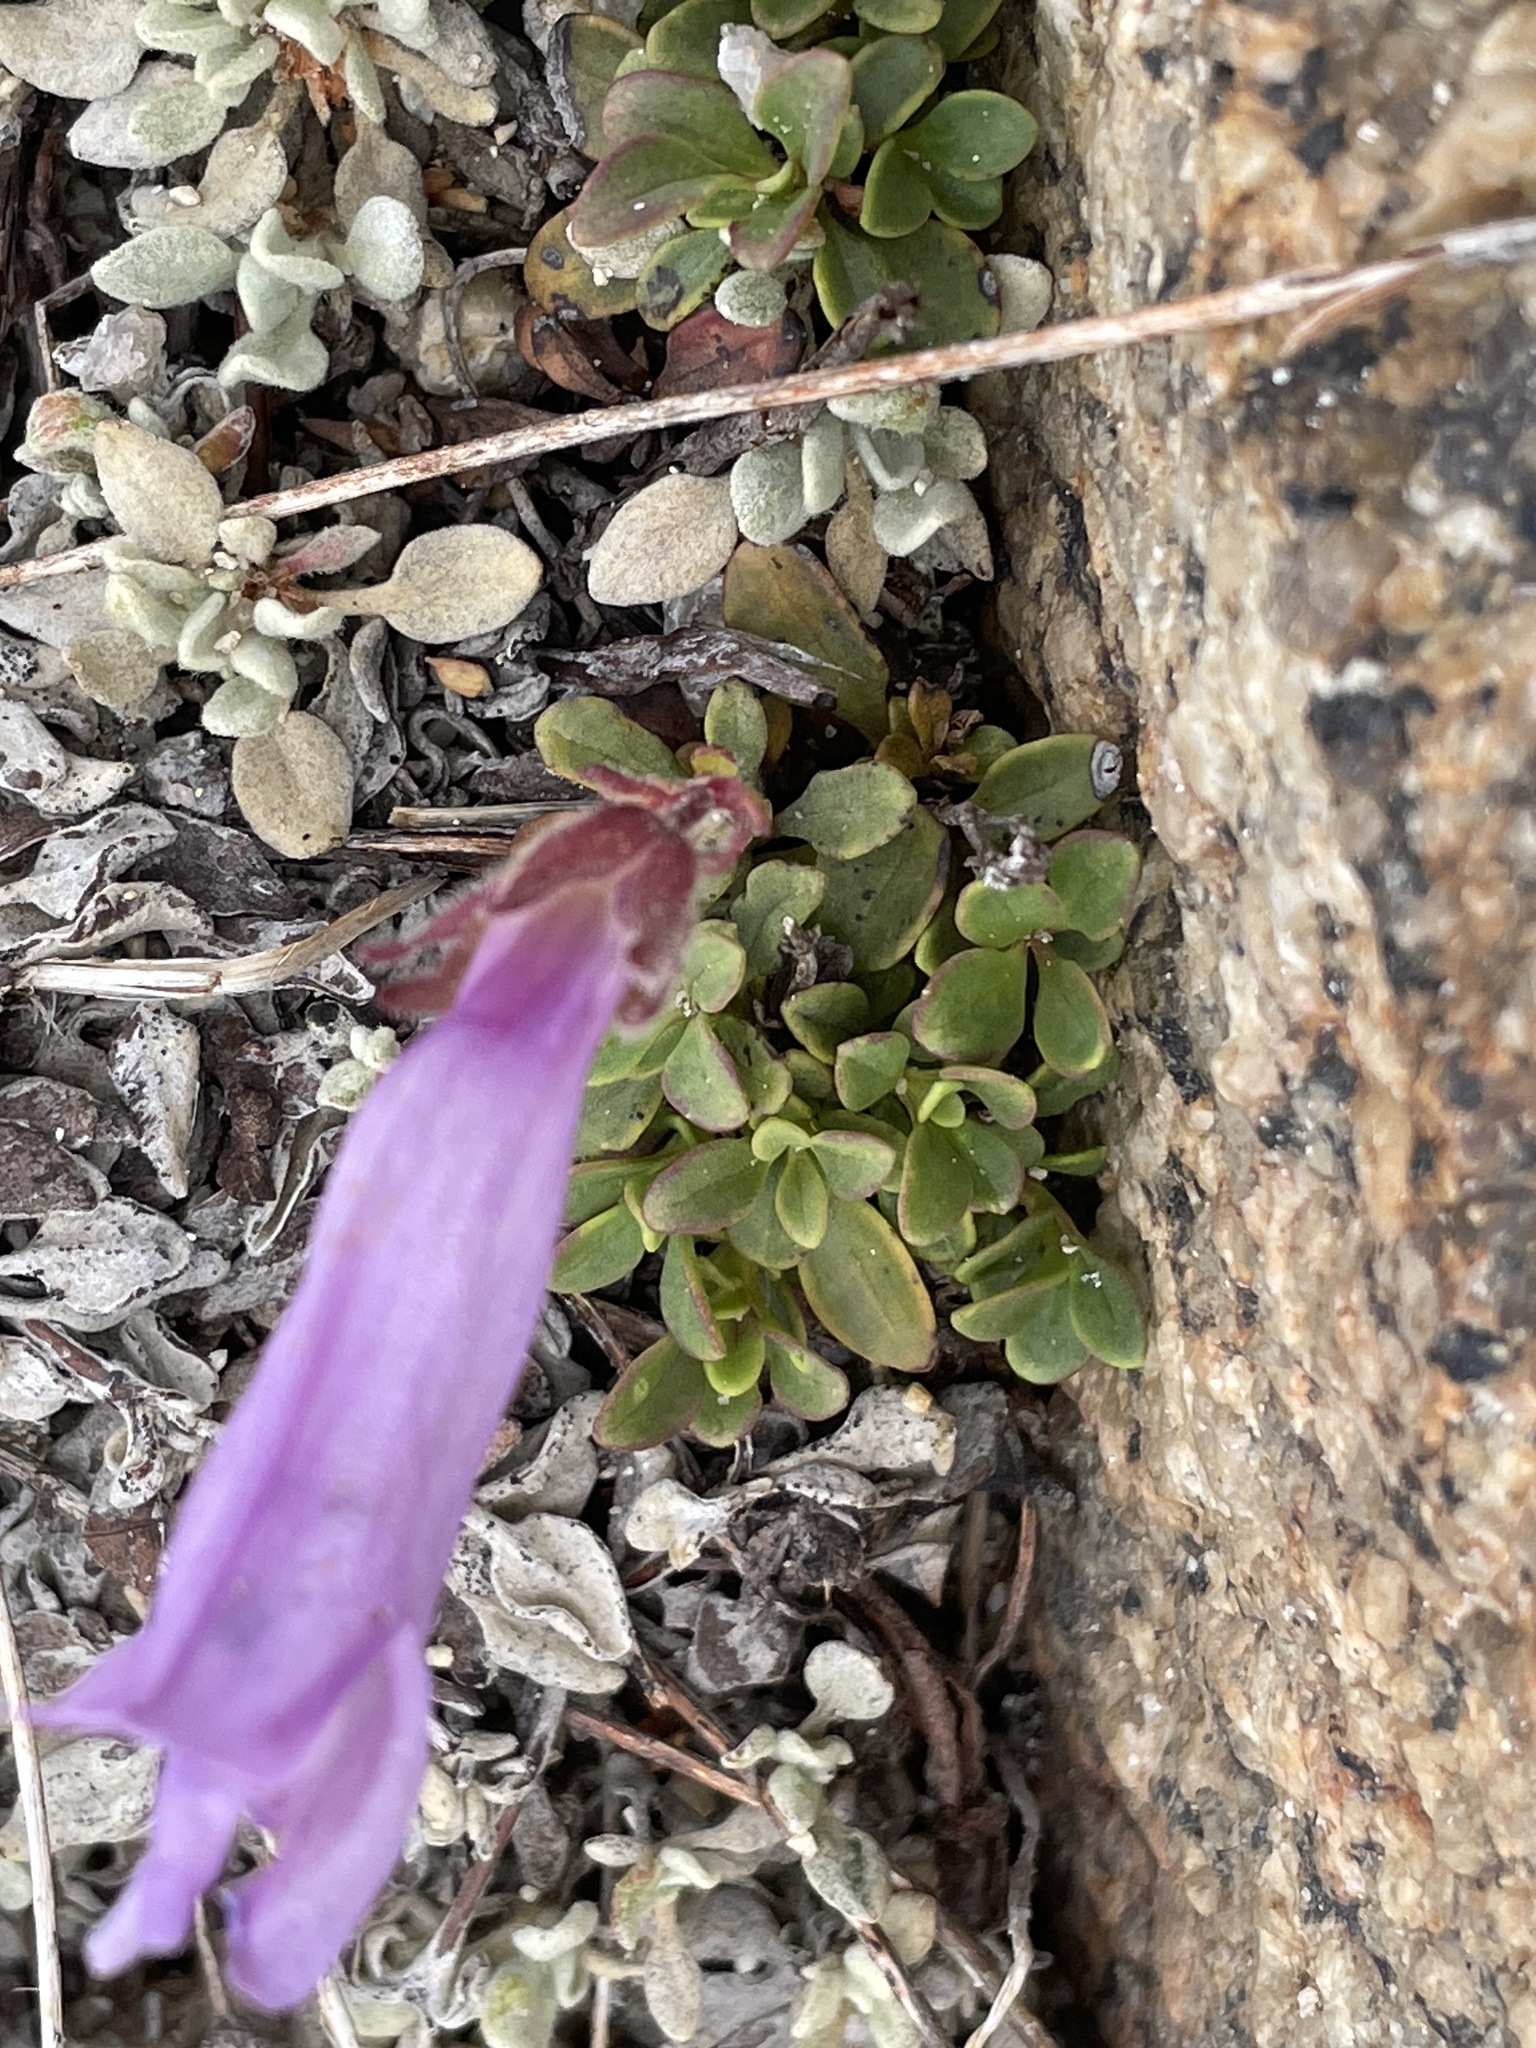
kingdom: Plantae
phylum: Tracheophyta
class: Magnoliopsida
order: Lamiales
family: Plantaginaceae
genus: Penstemon
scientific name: Penstemon davidsonii
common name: Davidson's penstemon
